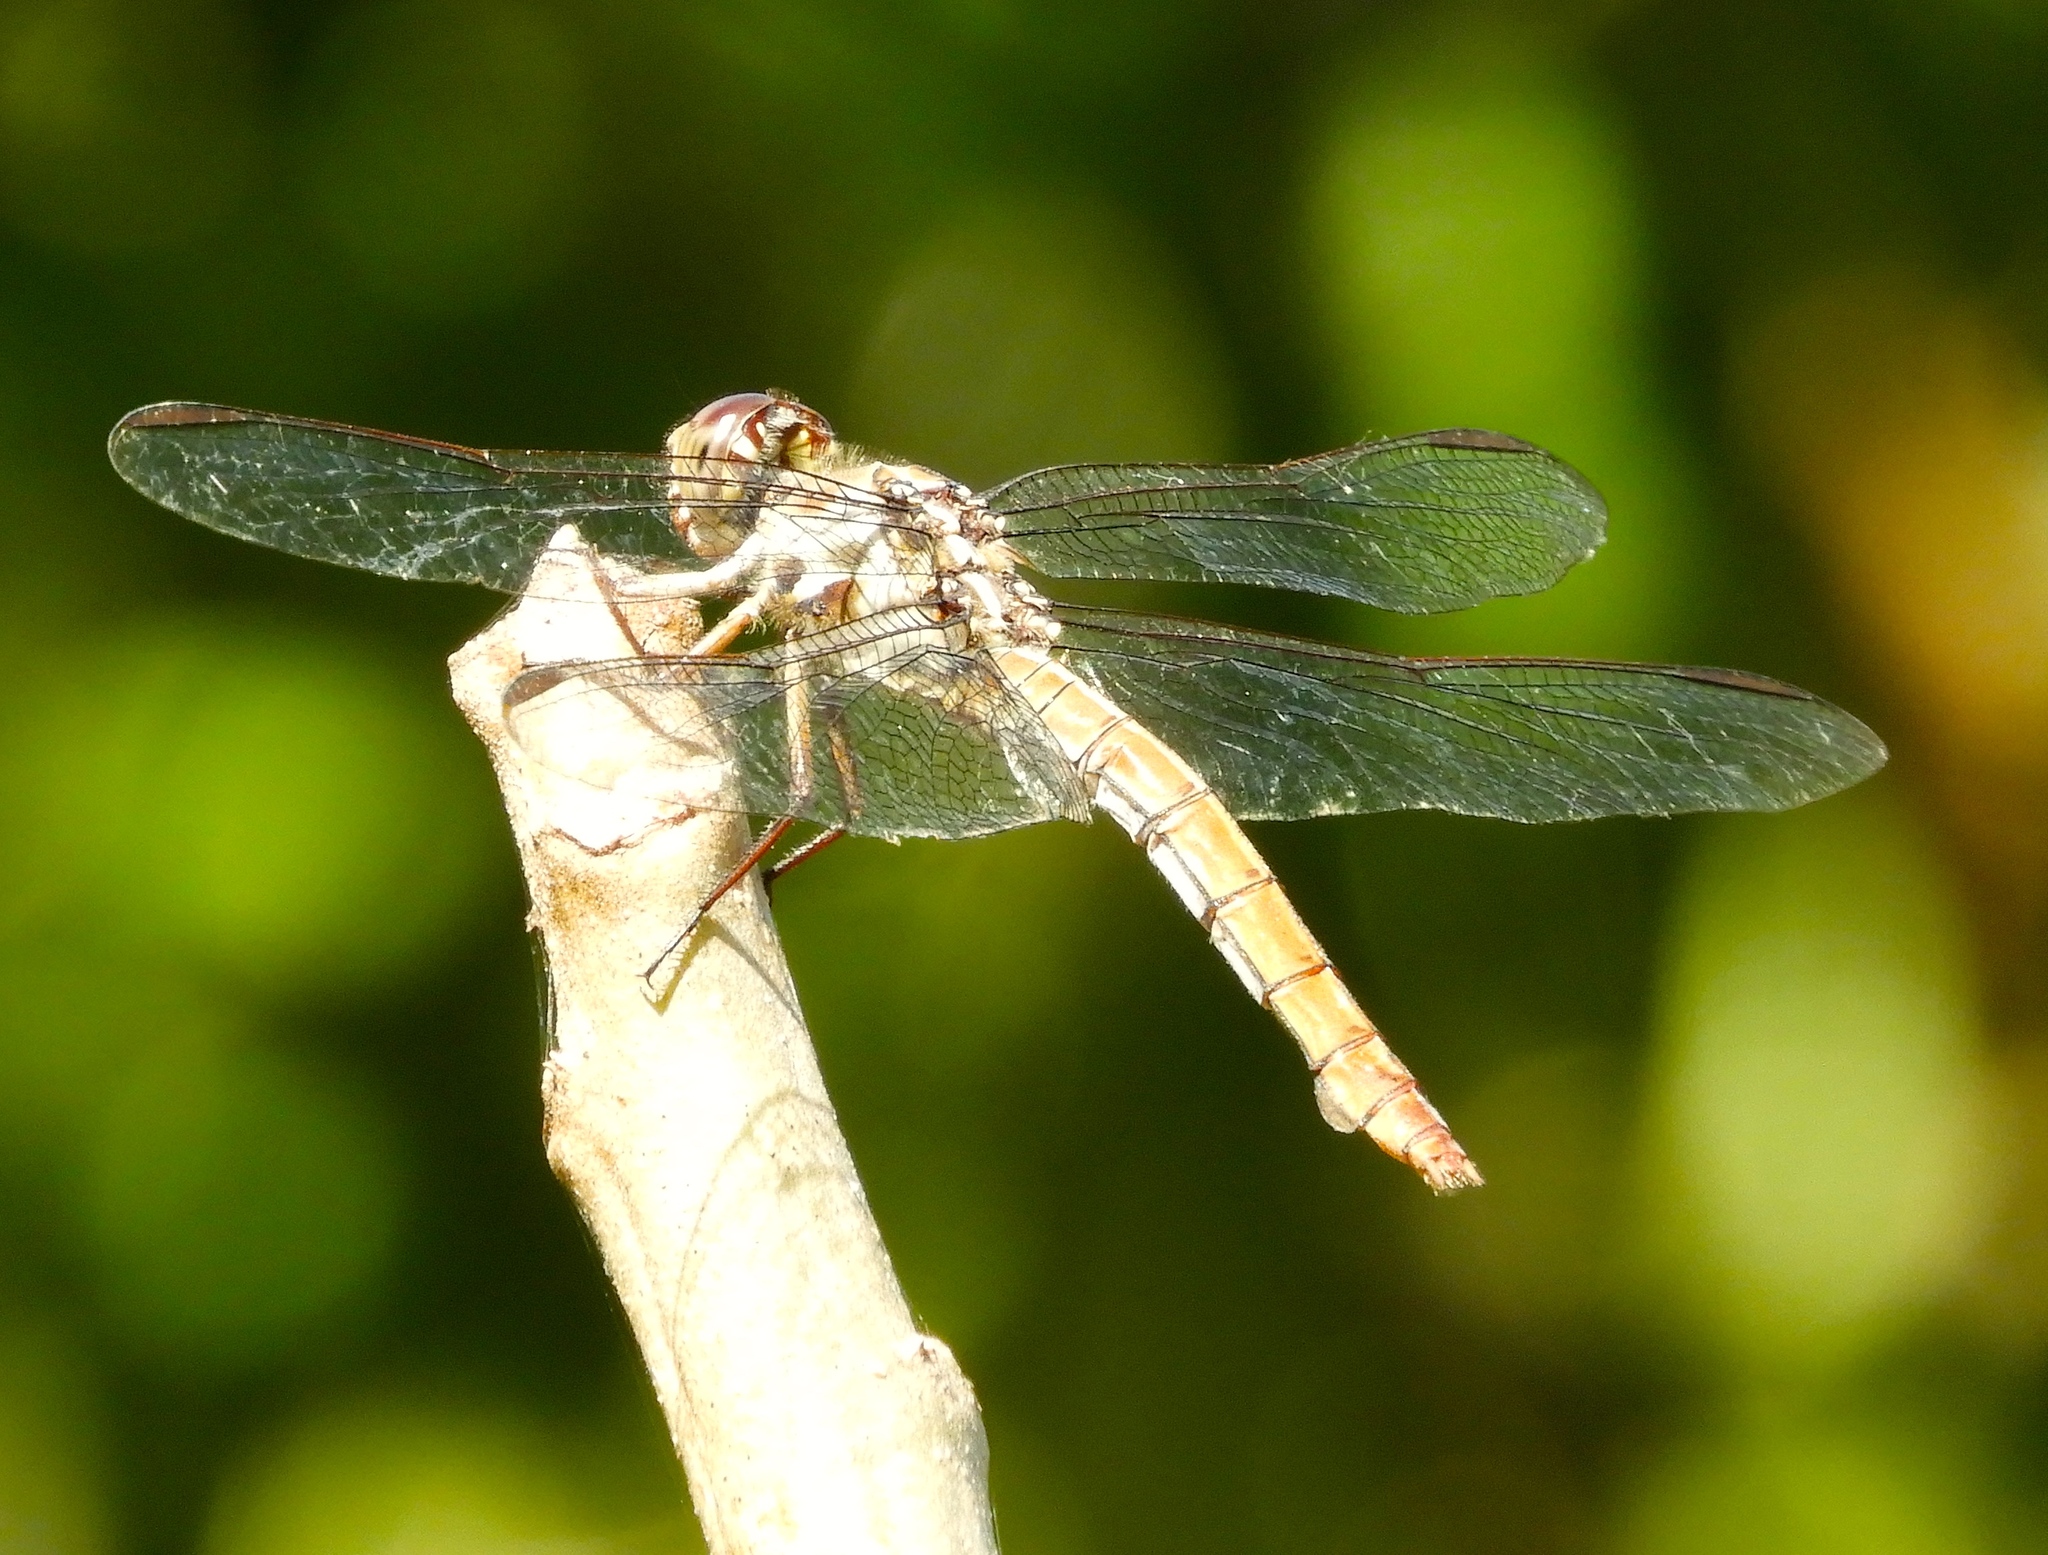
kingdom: Animalia
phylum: Arthropoda
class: Insecta
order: Odonata
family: Libellulidae
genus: Orthemis
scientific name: Orthemis ferruginea
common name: Roseate skimmer
